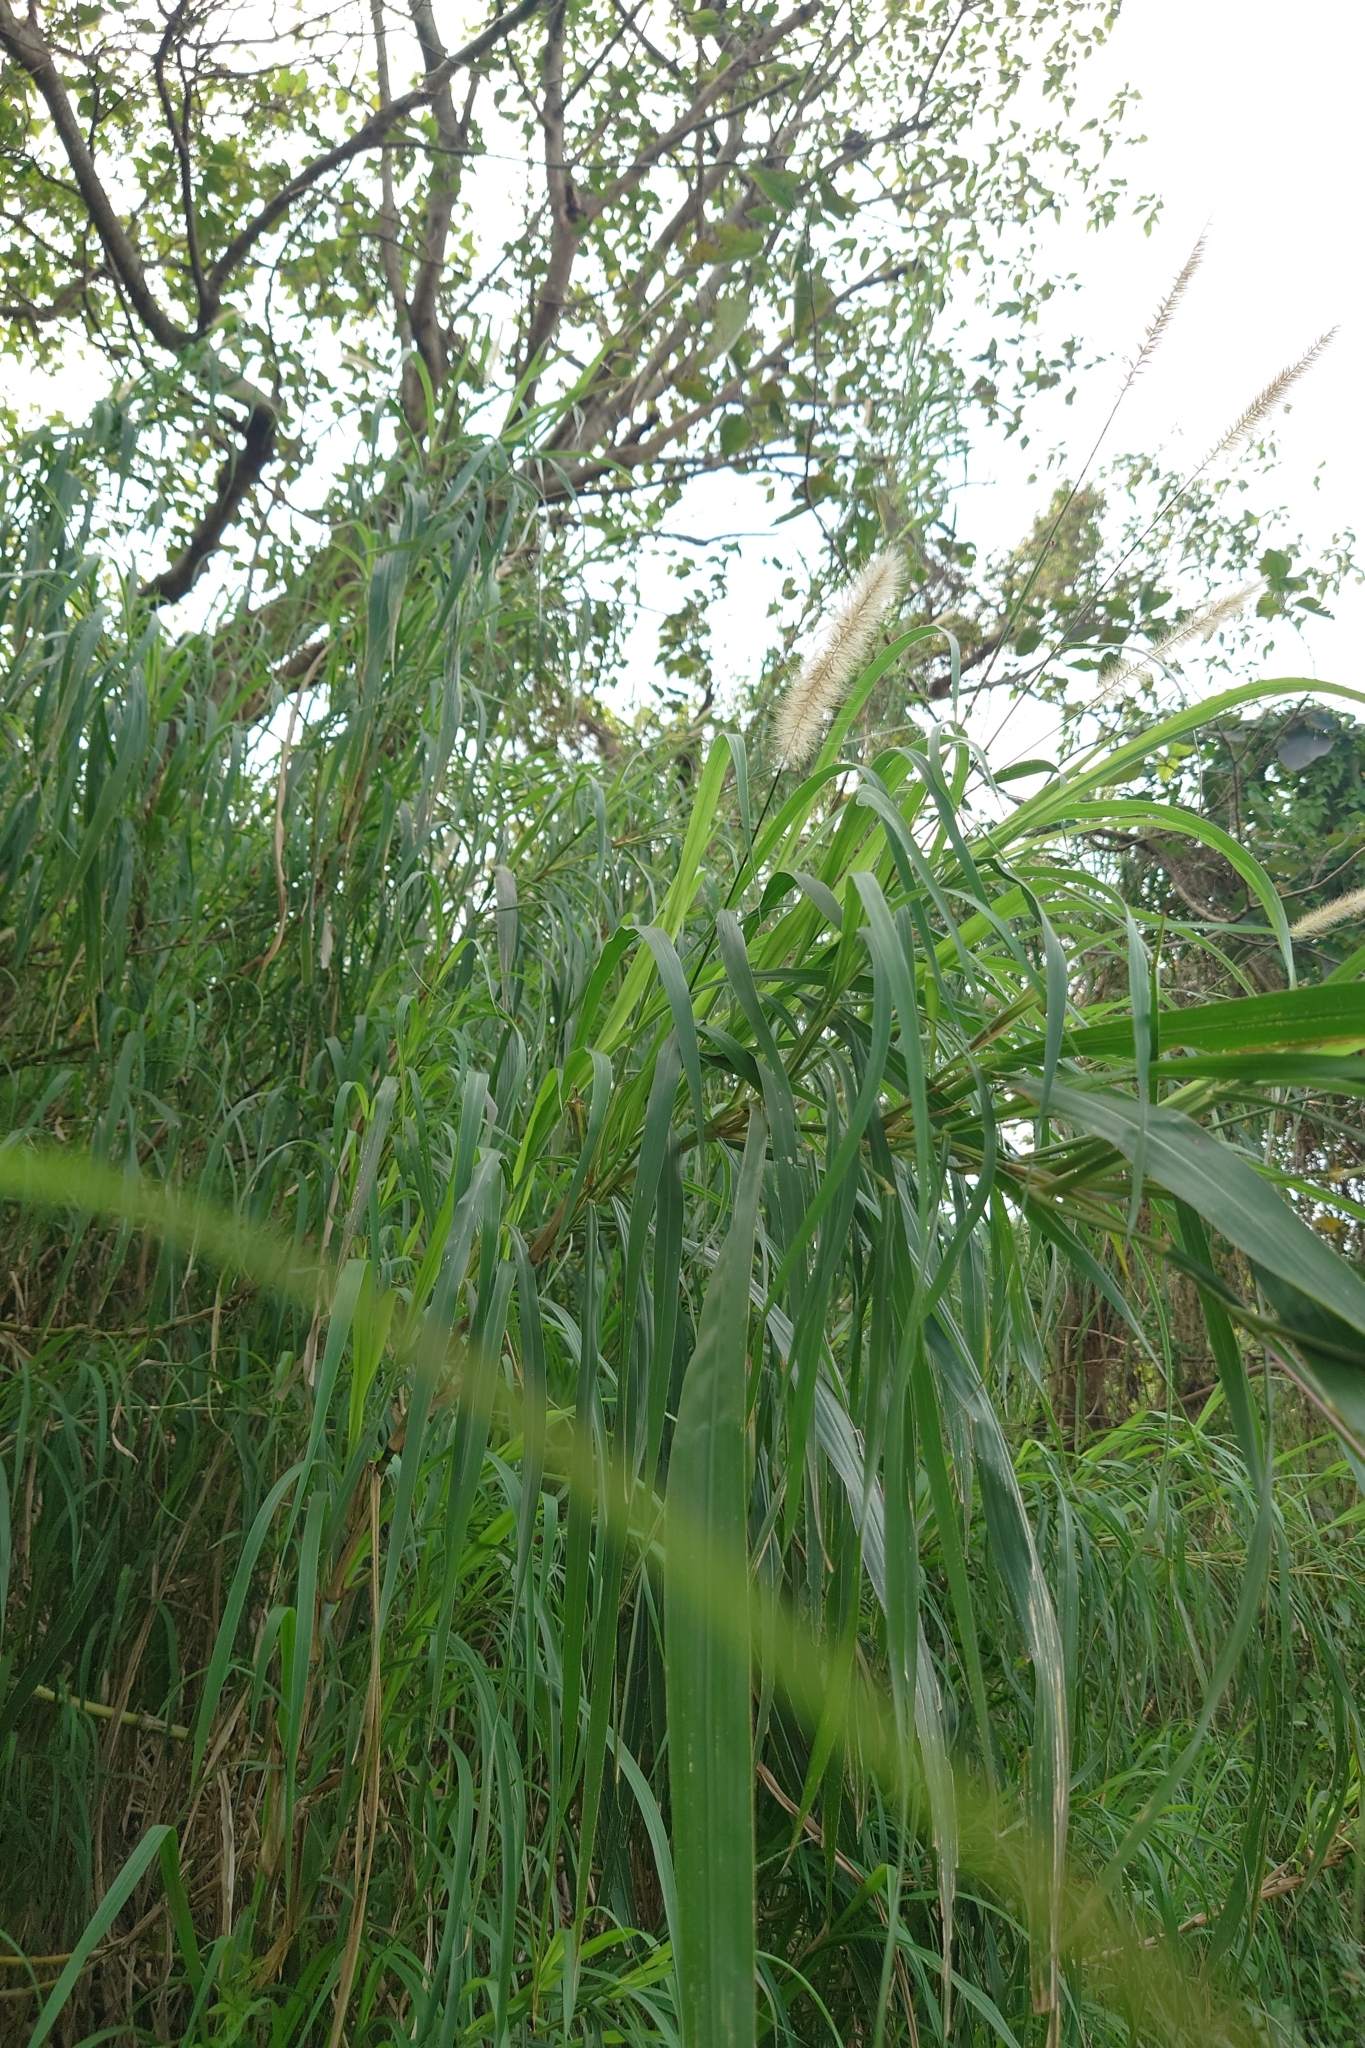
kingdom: Plantae
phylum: Tracheophyta
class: Liliopsida
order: Poales
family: Poaceae
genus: Cenchrus
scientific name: Cenchrus purpureus
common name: Elephant grass
